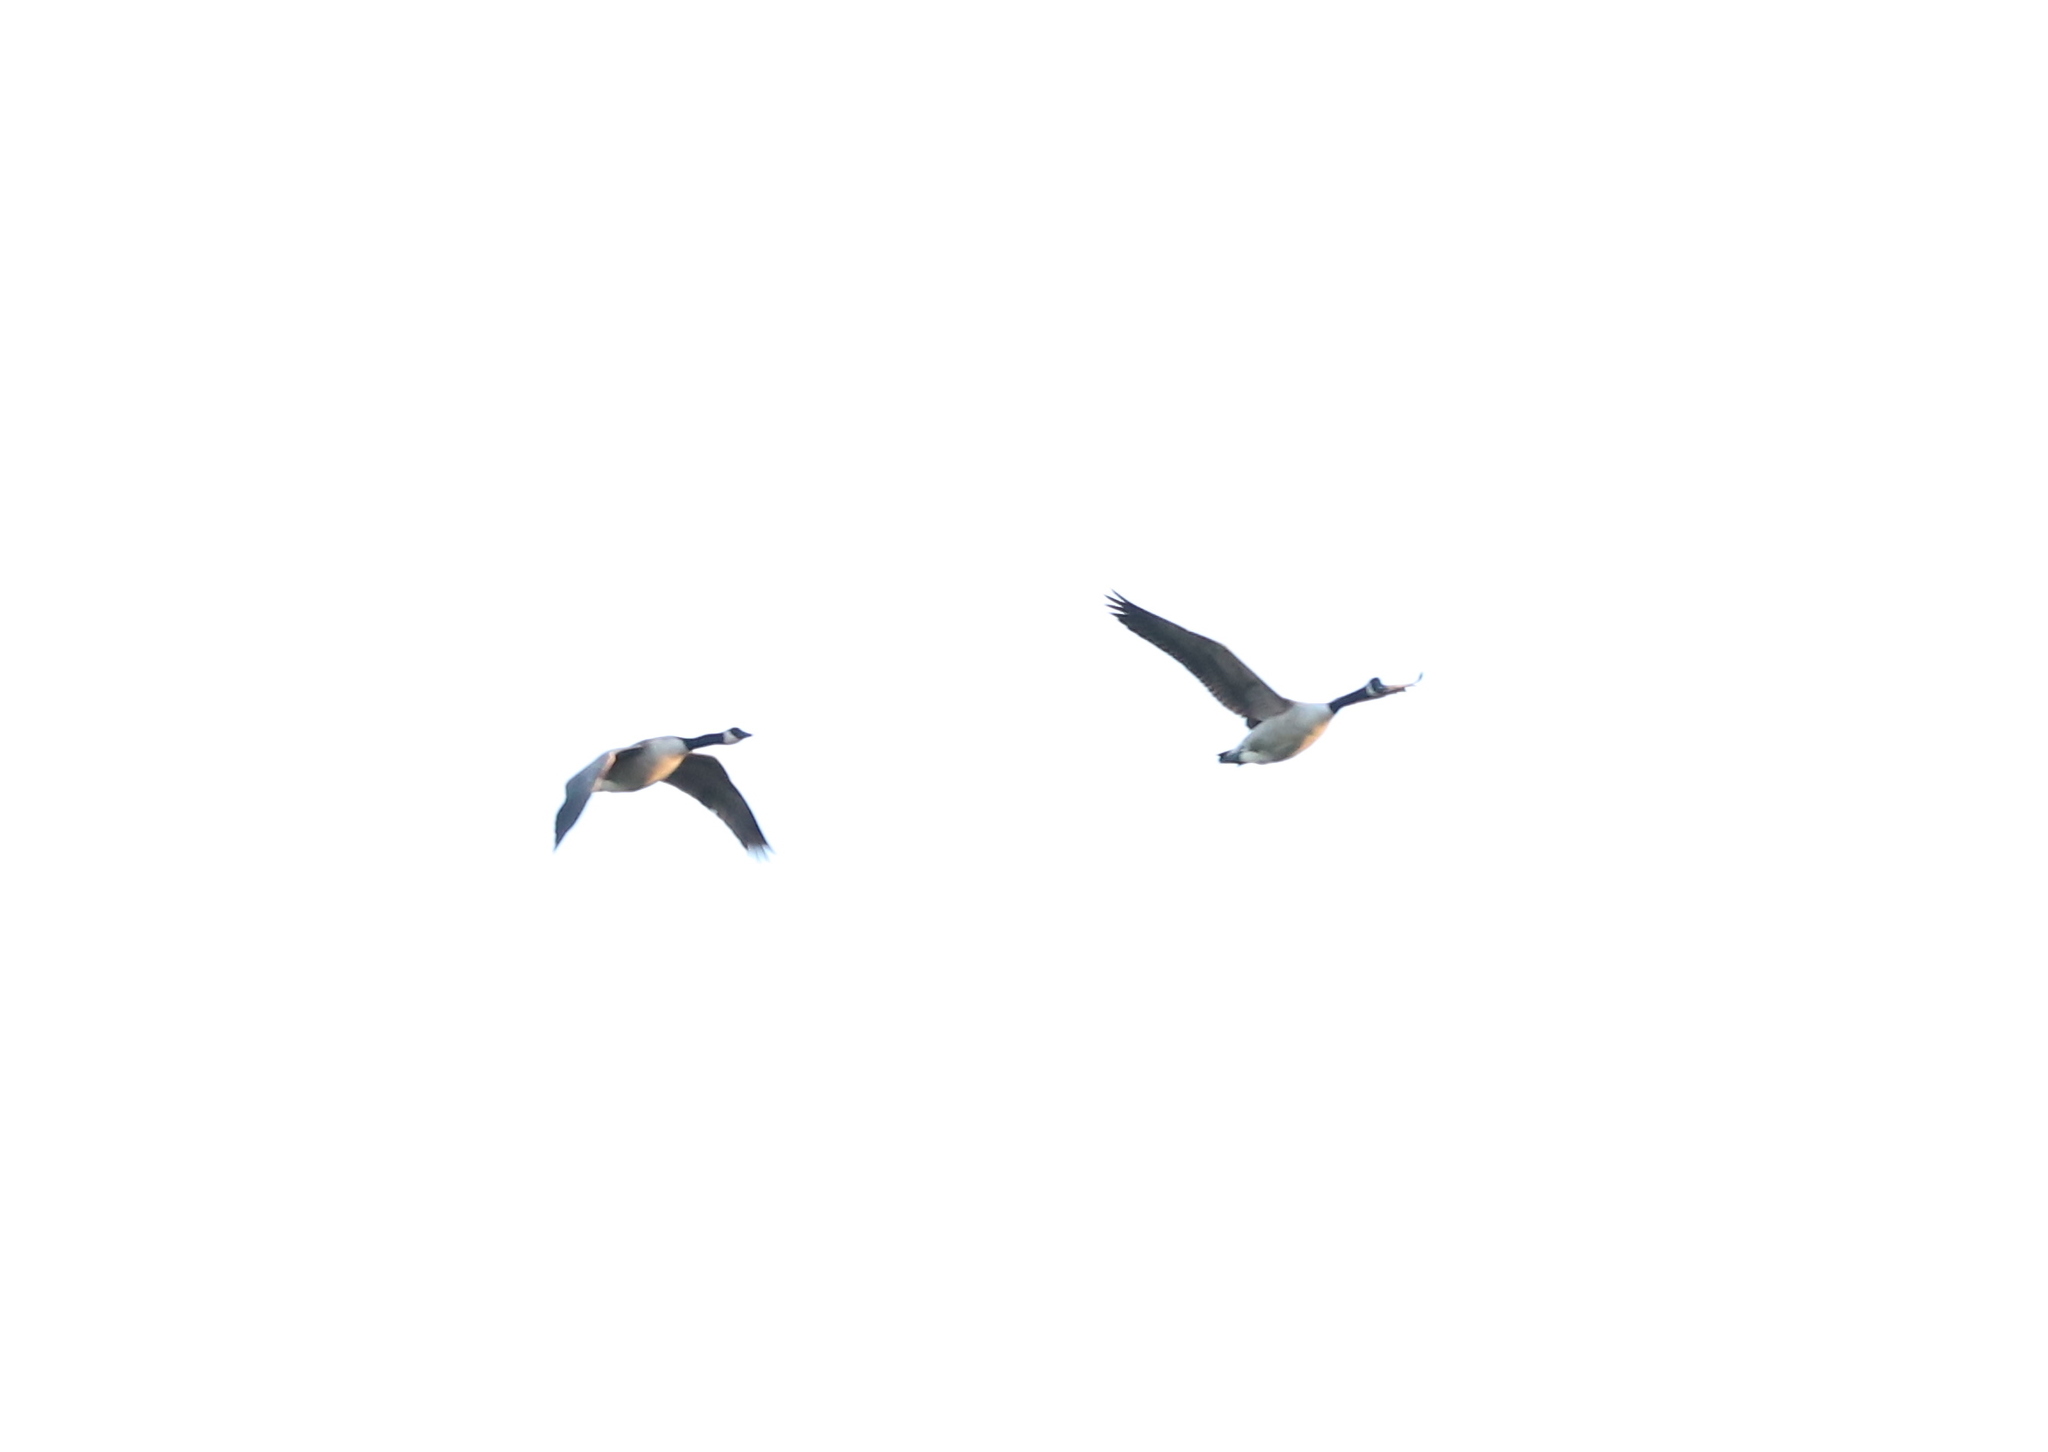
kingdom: Animalia
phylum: Chordata
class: Aves
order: Anseriformes
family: Anatidae
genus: Branta
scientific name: Branta canadensis
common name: Canada goose
